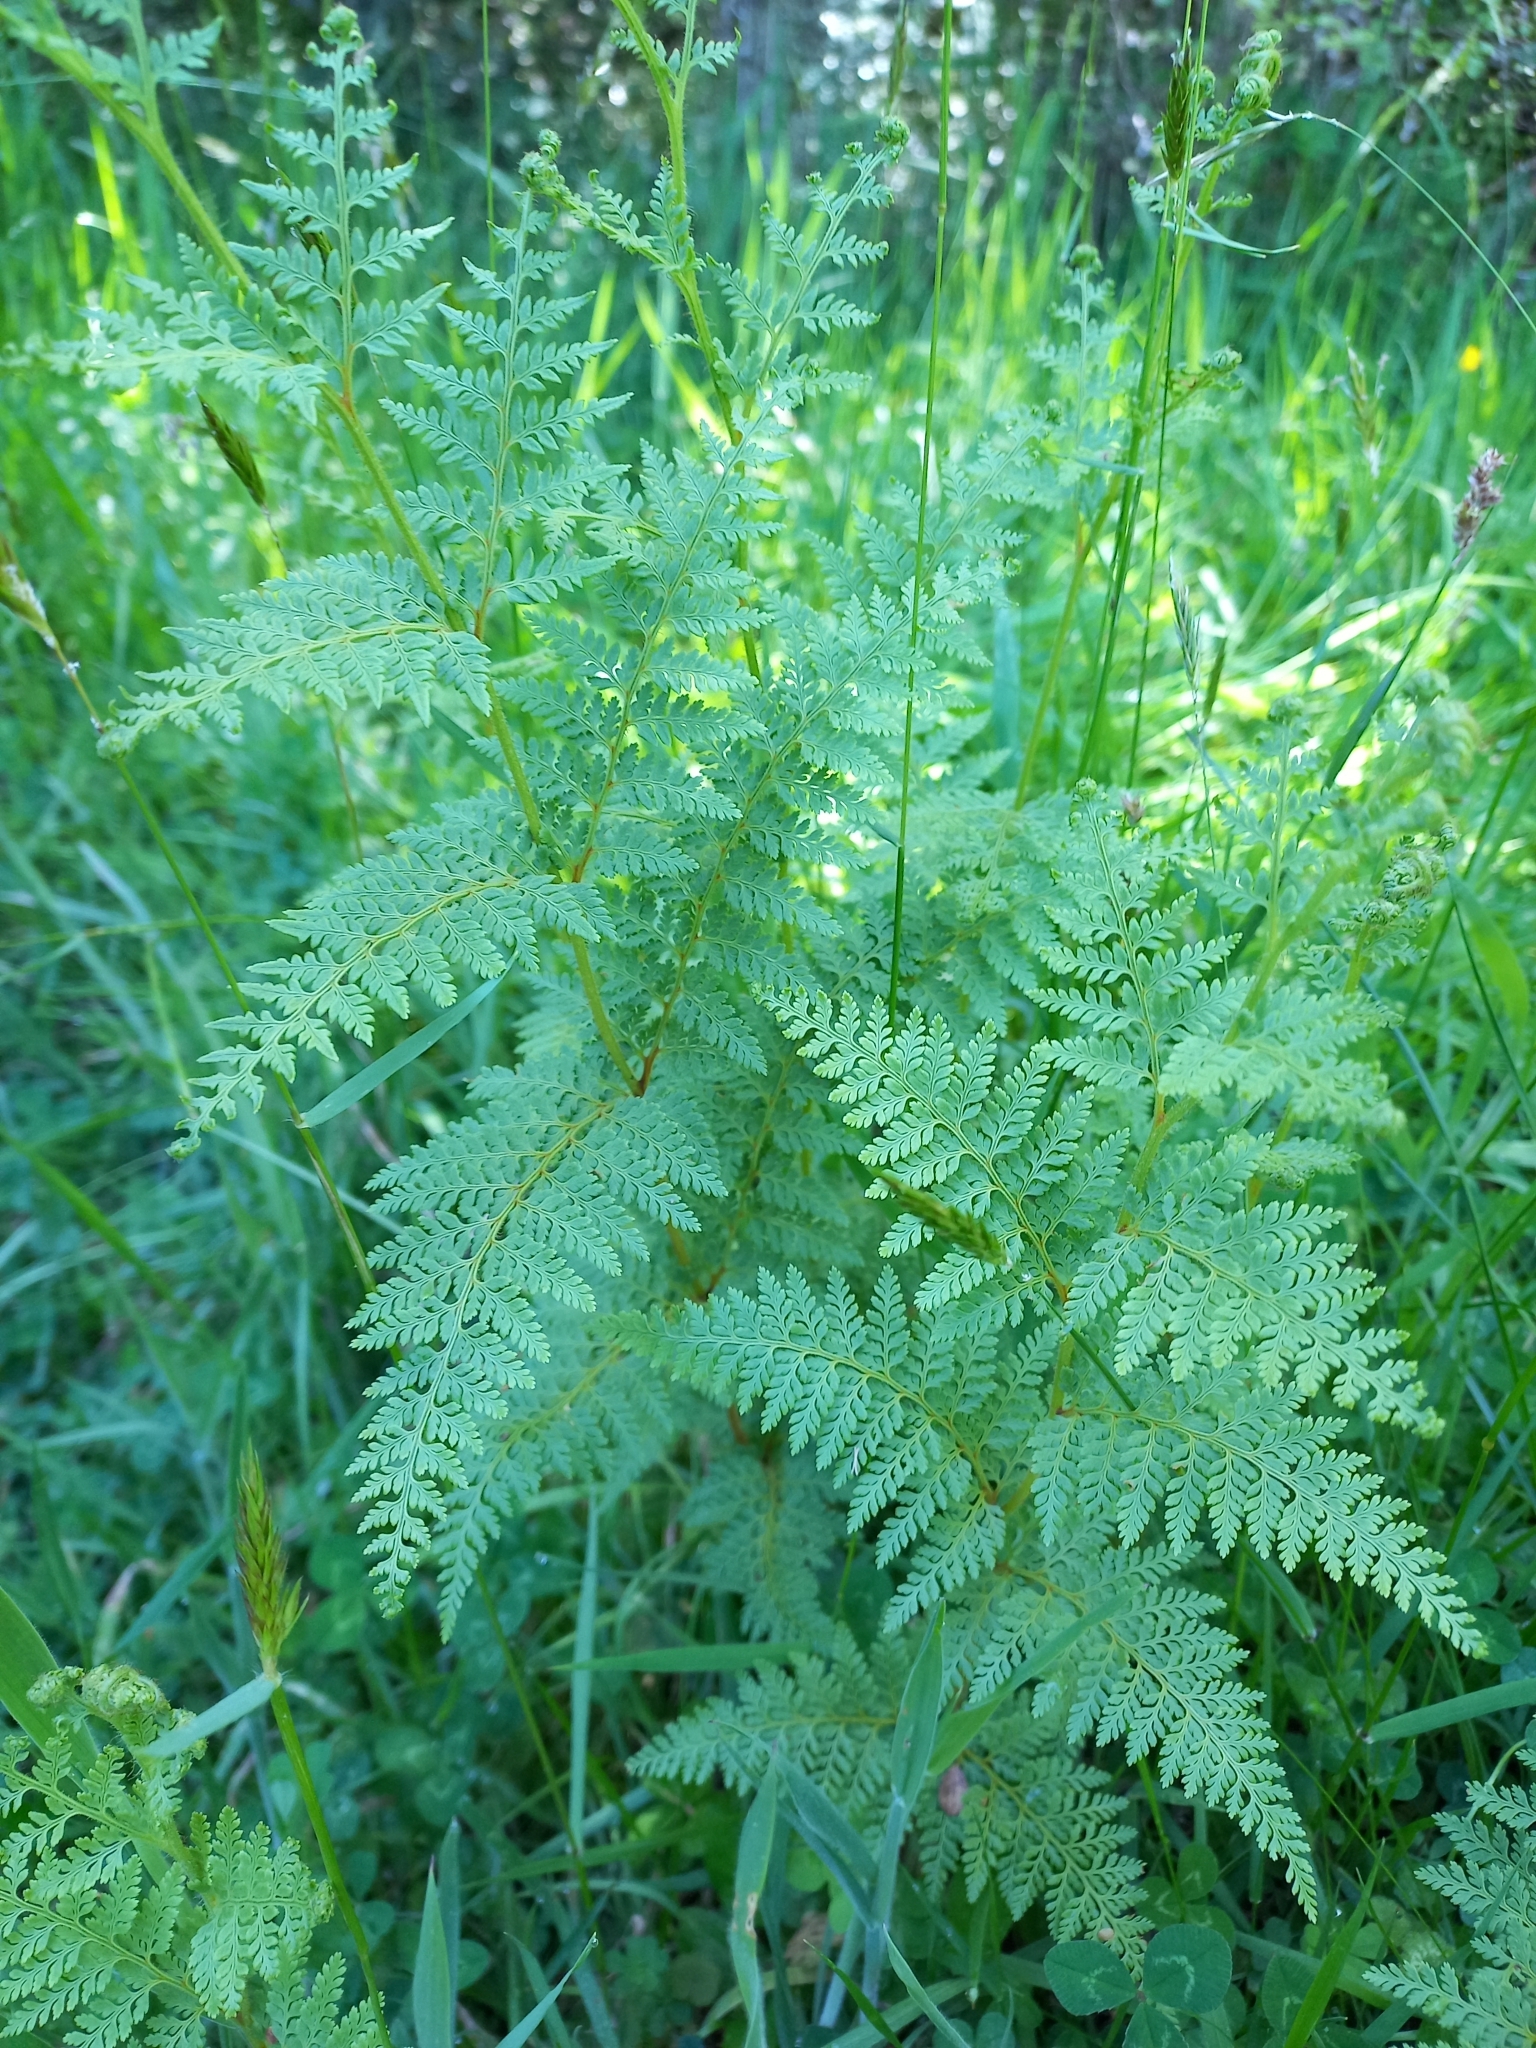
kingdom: Plantae
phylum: Tracheophyta
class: Polypodiopsida
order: Polypodiales
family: Dennstaedtiaceae
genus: Paesia
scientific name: Paesia scaberula
